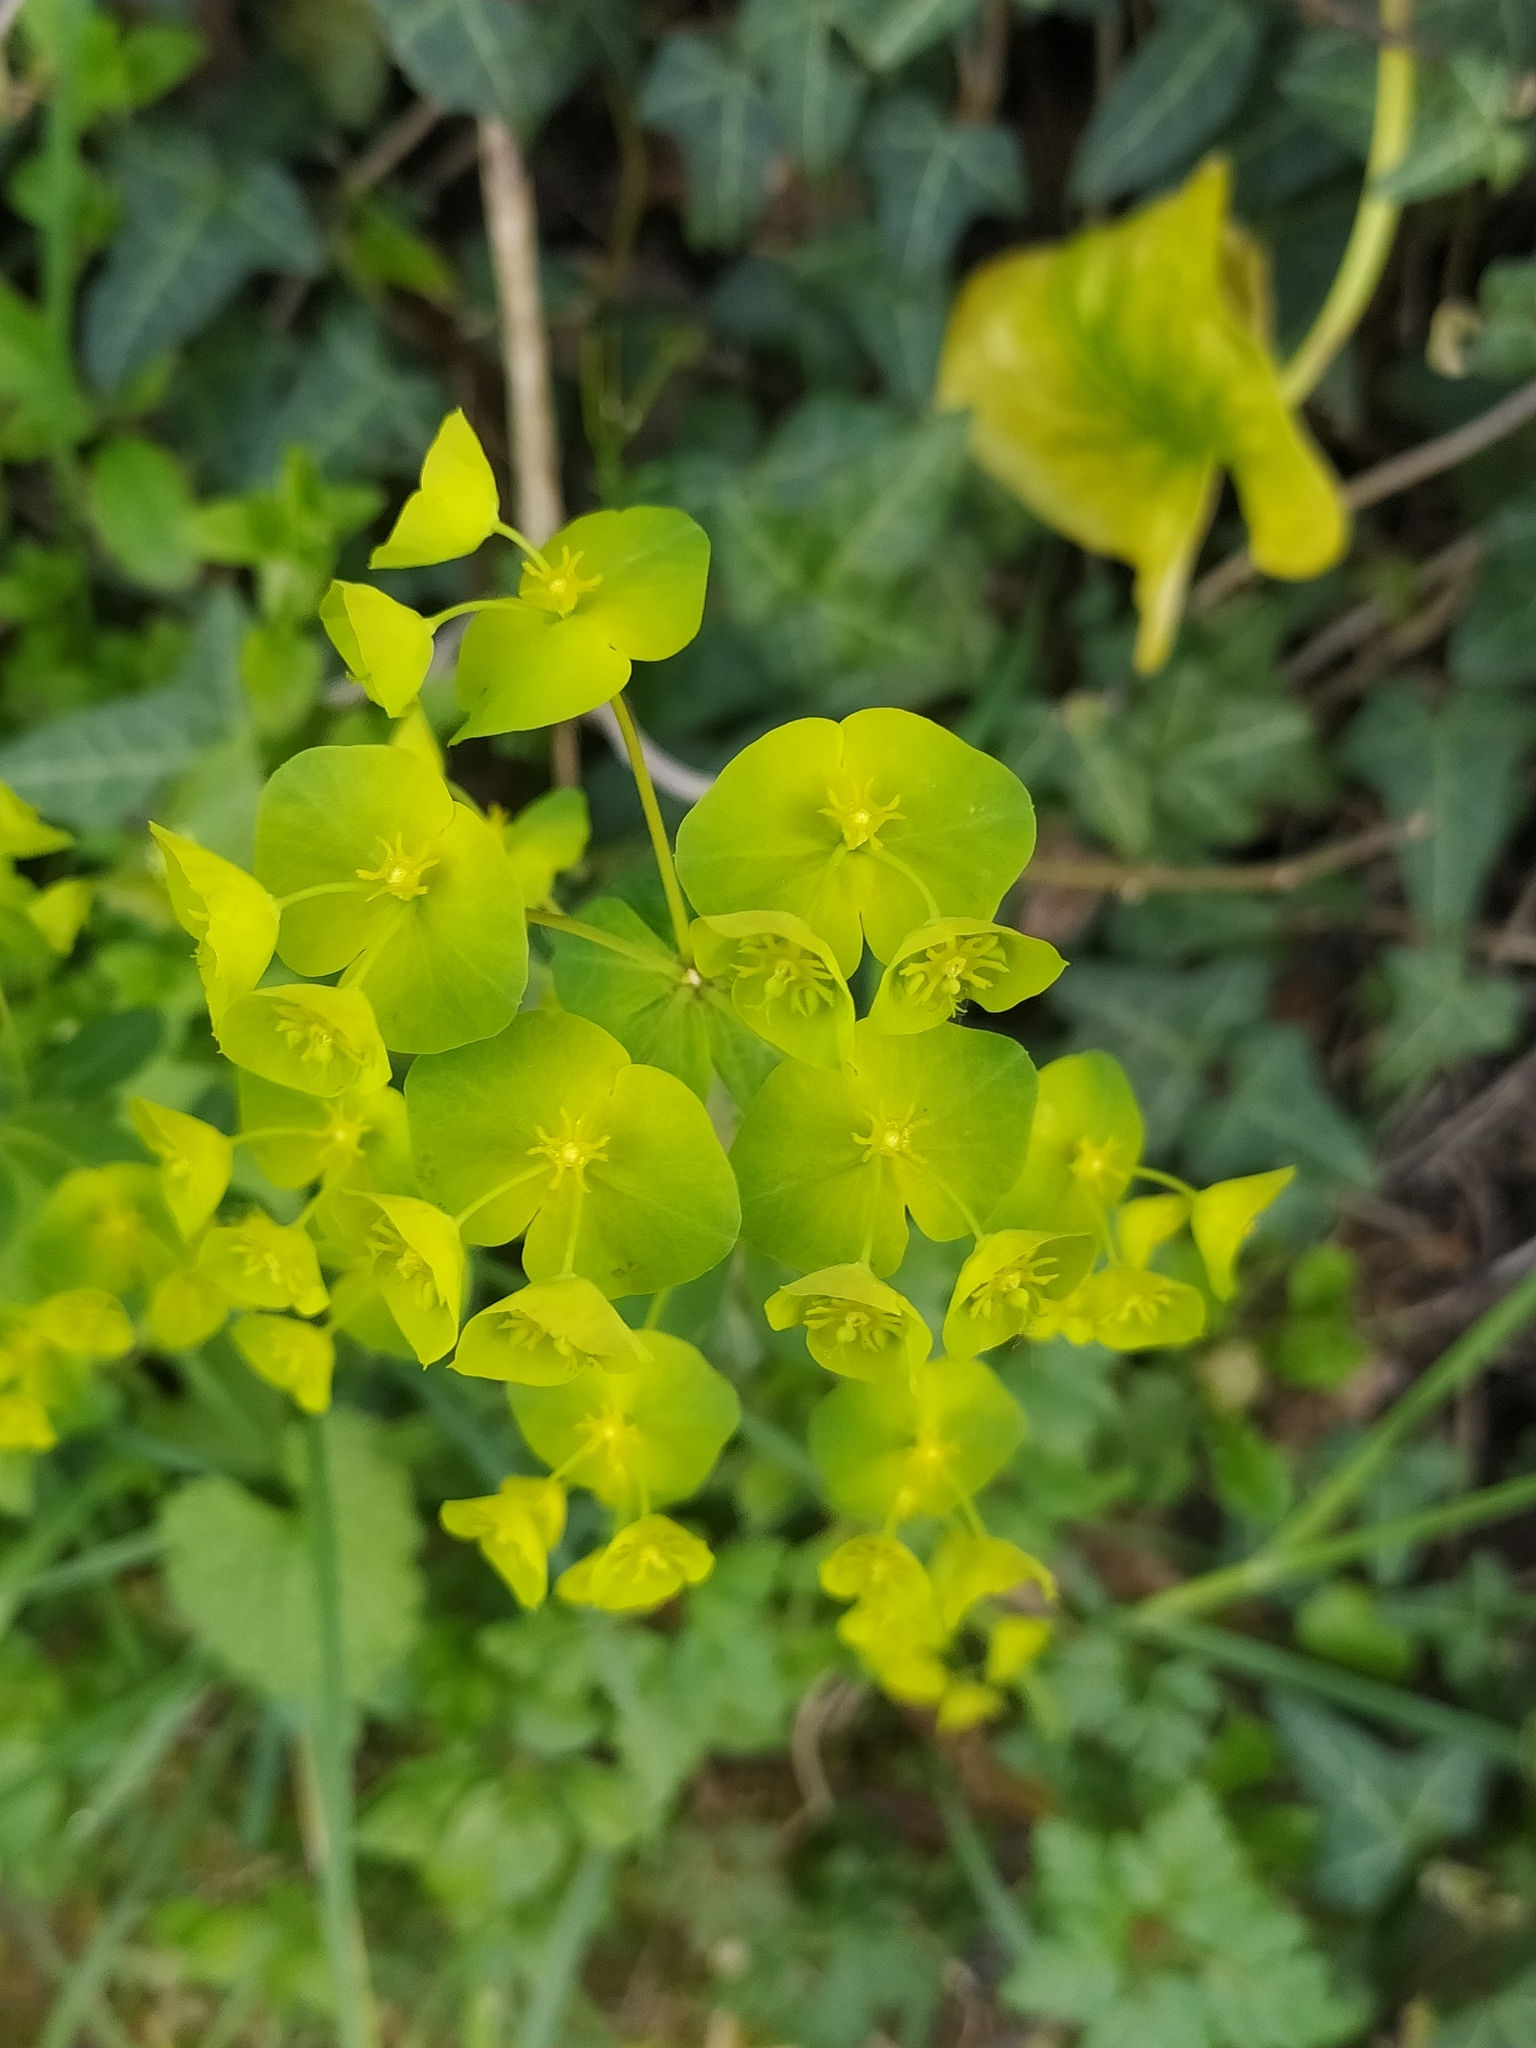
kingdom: Plantae
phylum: Tracheophyta
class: Magnoliopsida
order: Malpighiales
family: Euphorbiaceae
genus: Euphorbia
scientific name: Euphorbia amygdaloides
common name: Wood spurge
